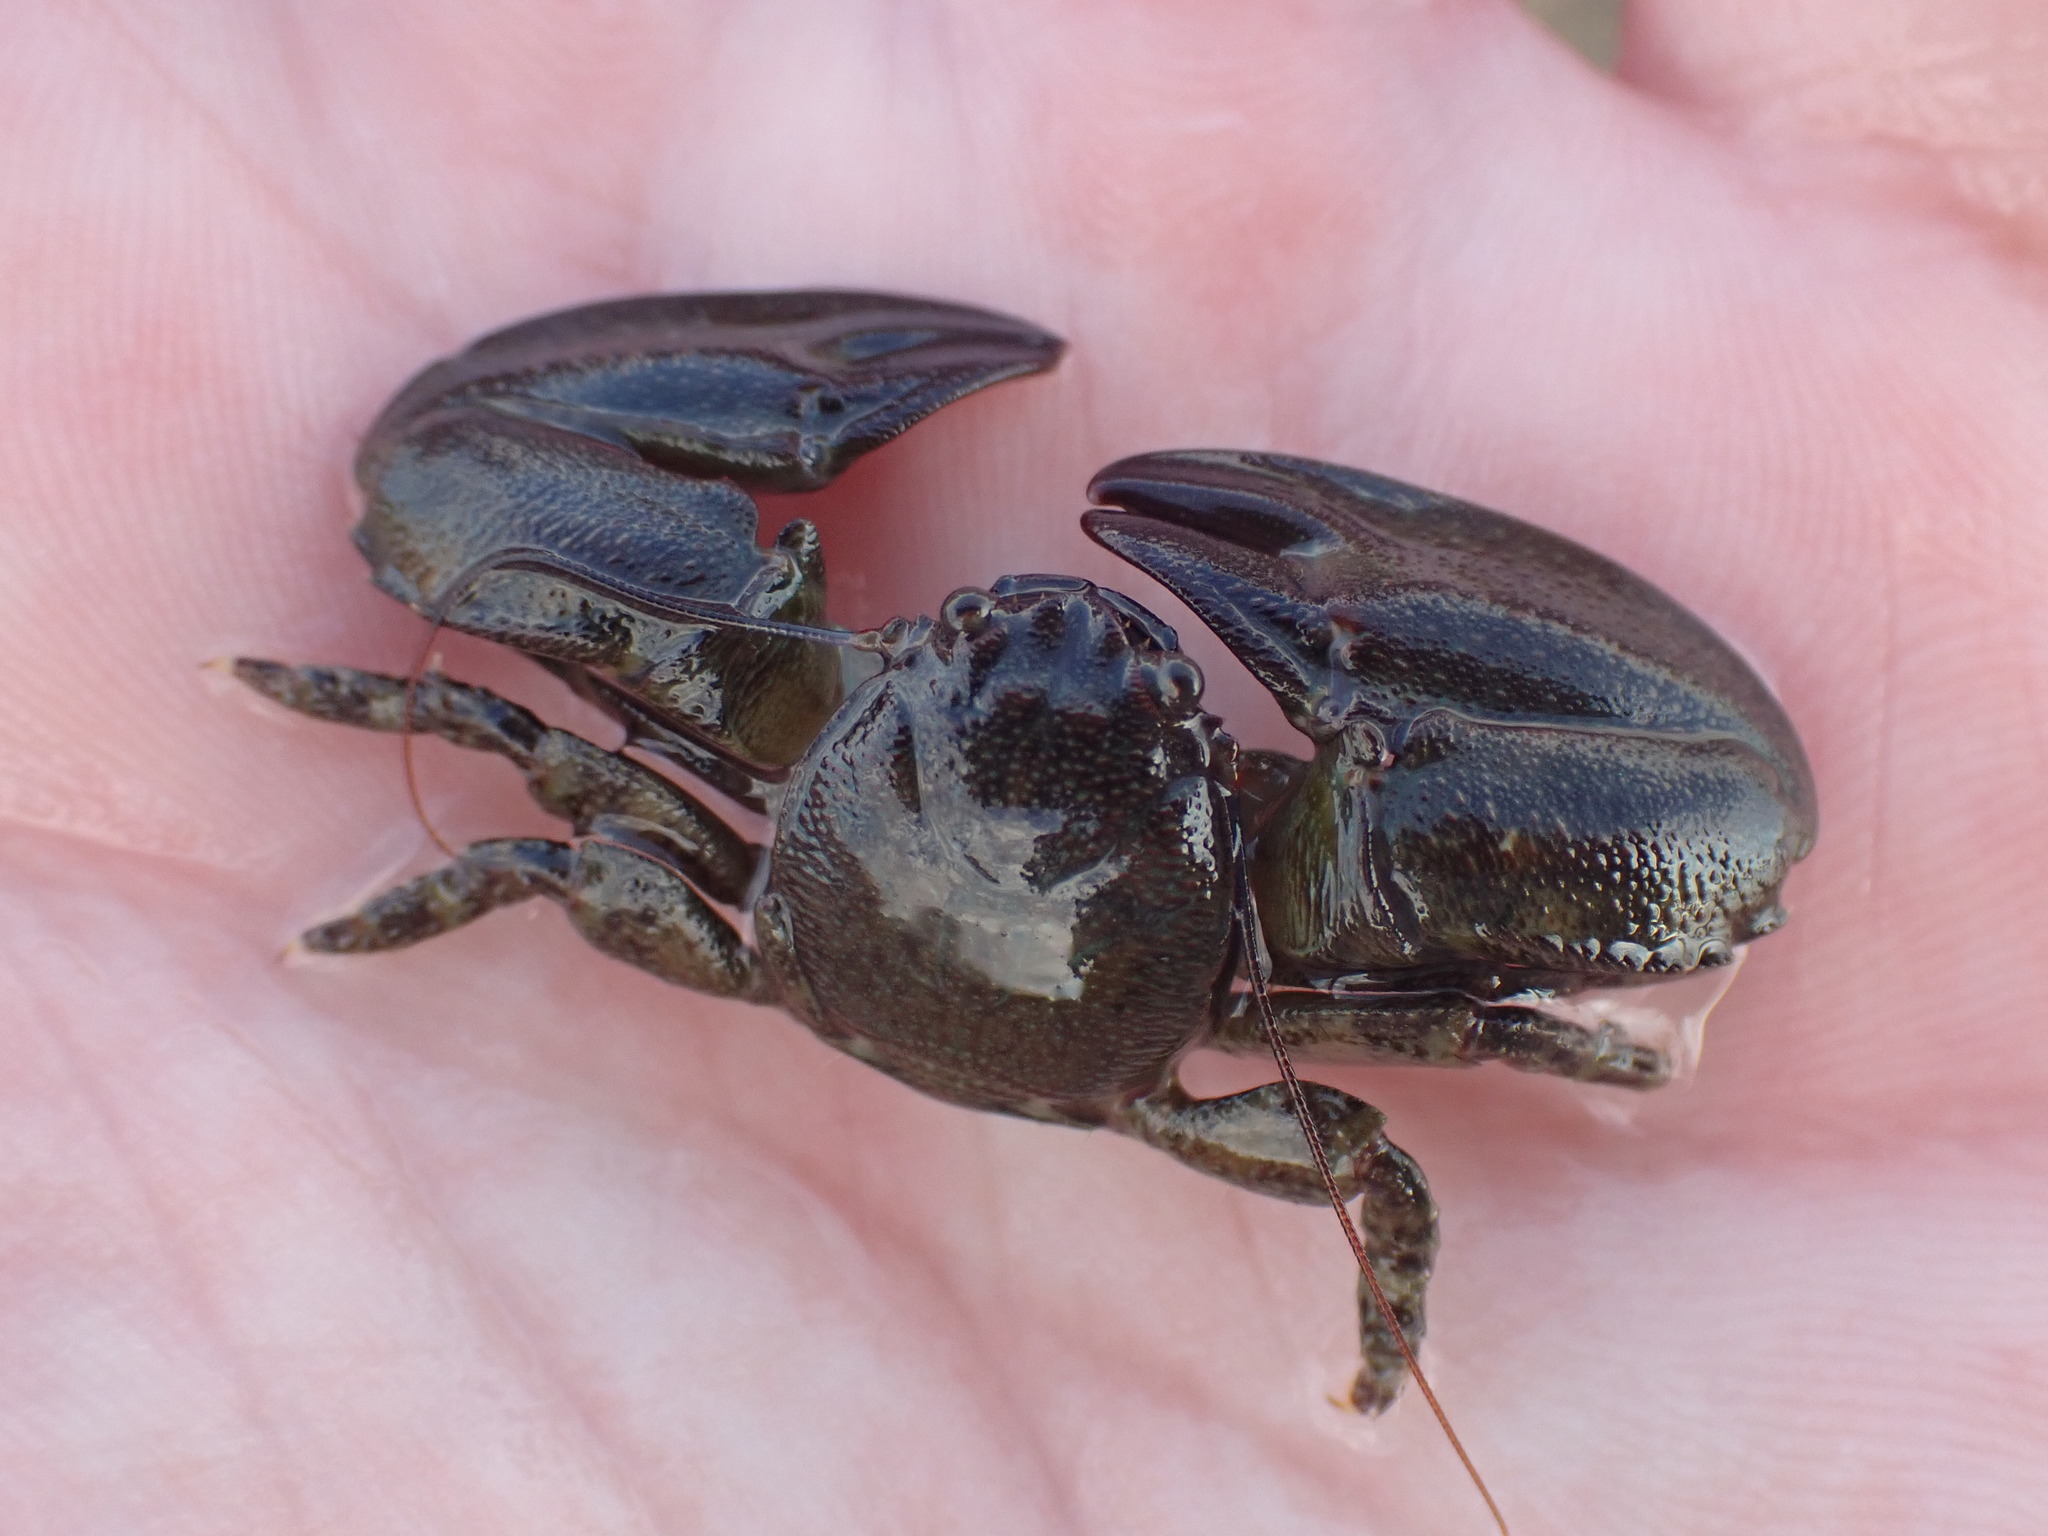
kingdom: Animalia
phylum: Arthropoda
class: Malacostraca
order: Decapoda
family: Porcellanidae
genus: Petrolisthes
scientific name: Petrolisthes elongatus
